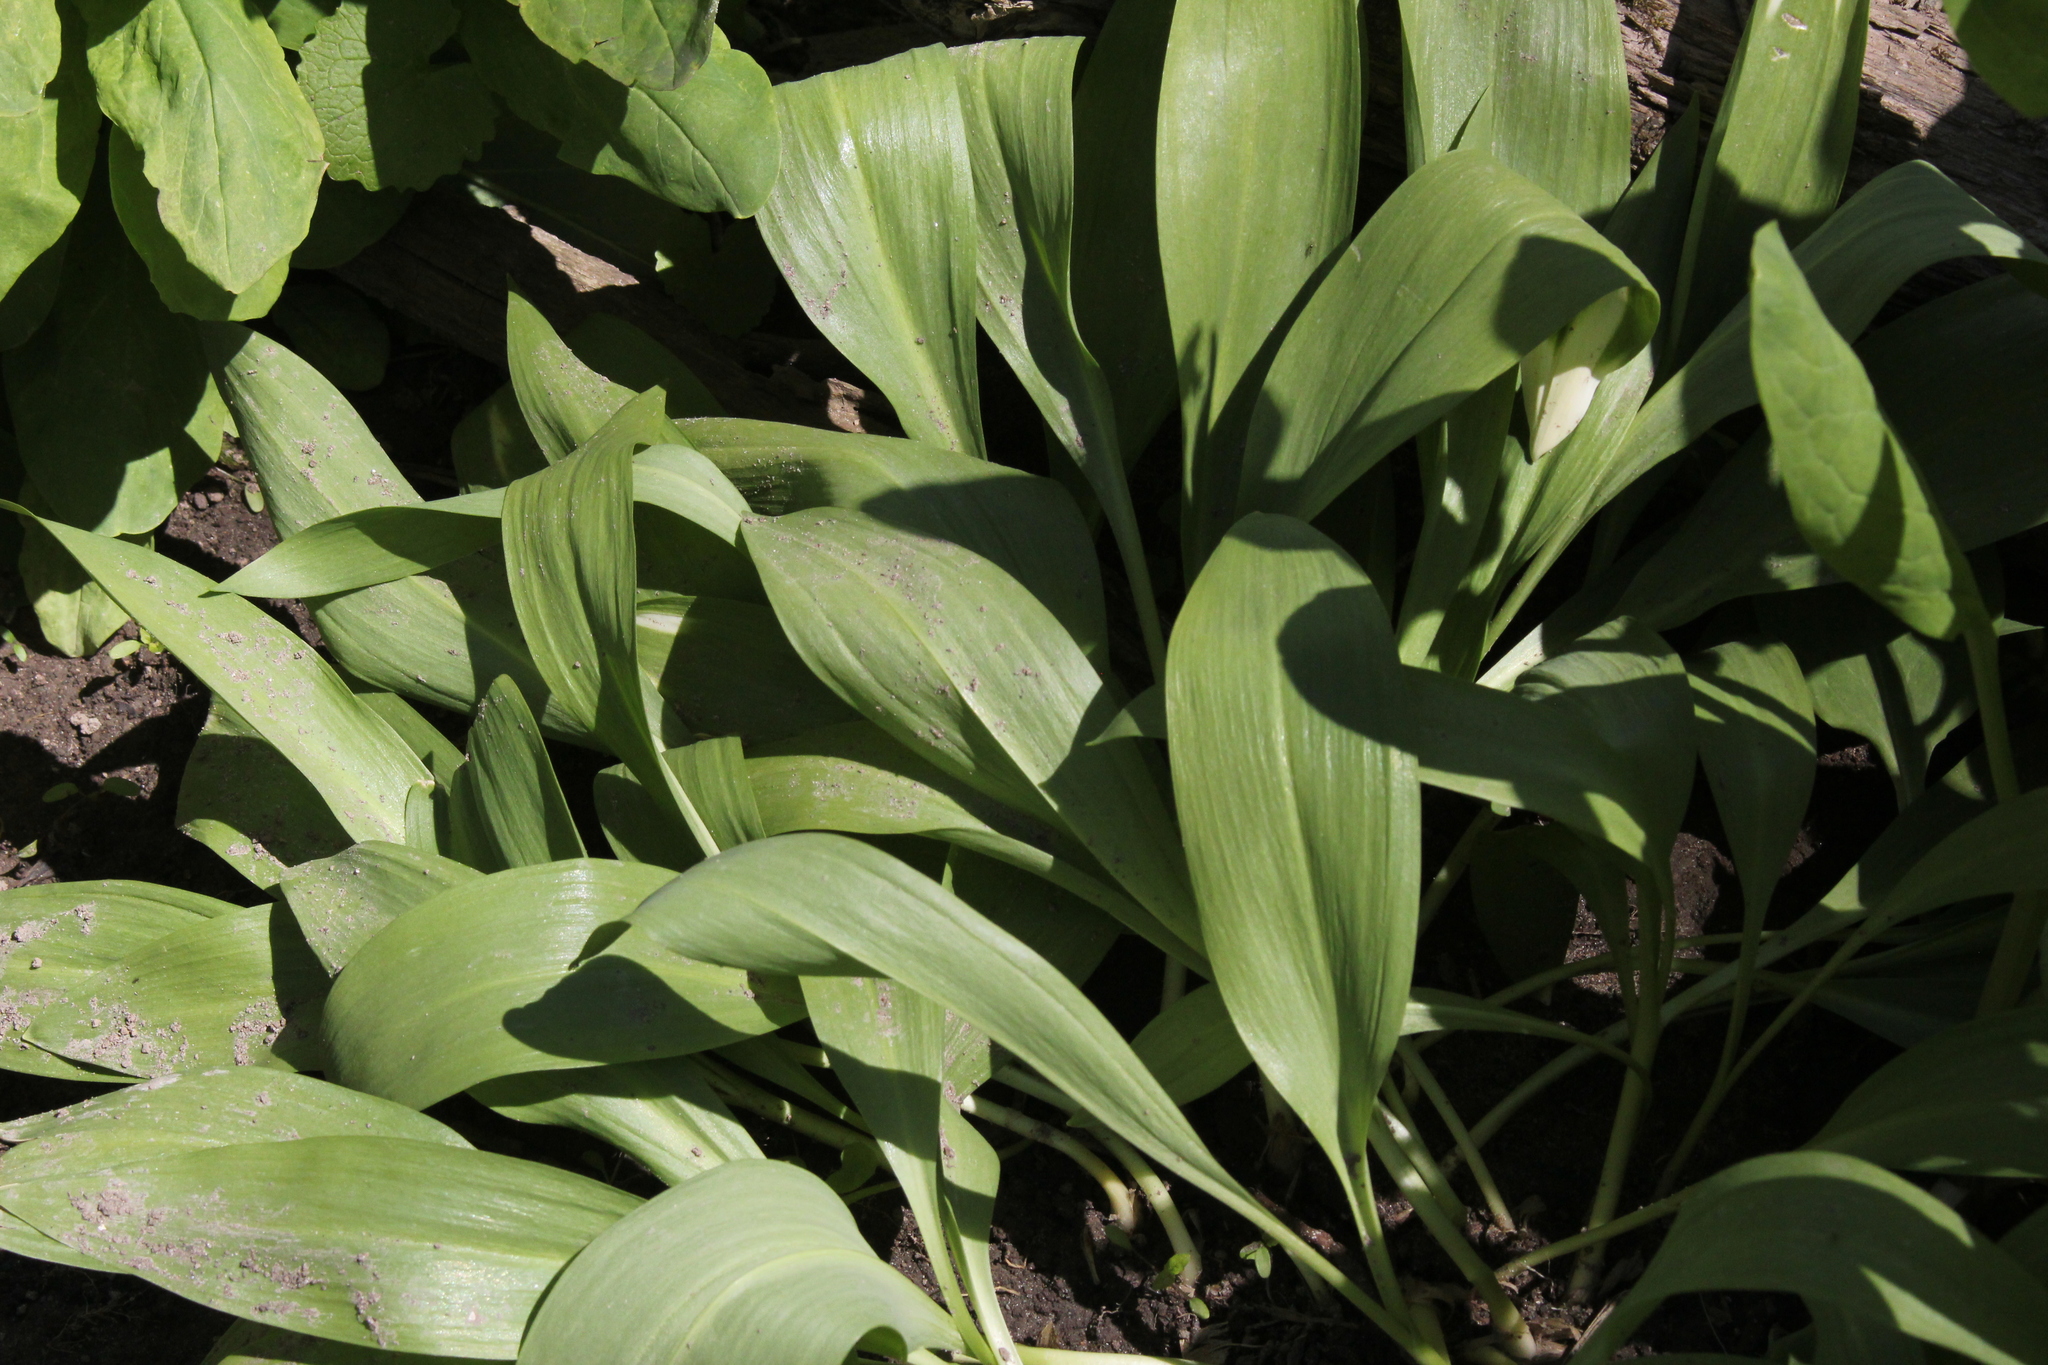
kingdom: Plantae
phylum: Tracheophyta
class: Liliopsida
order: Asparagales
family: Amaryllidaceae
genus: Allium
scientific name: Allium tricoccum
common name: Ramp
